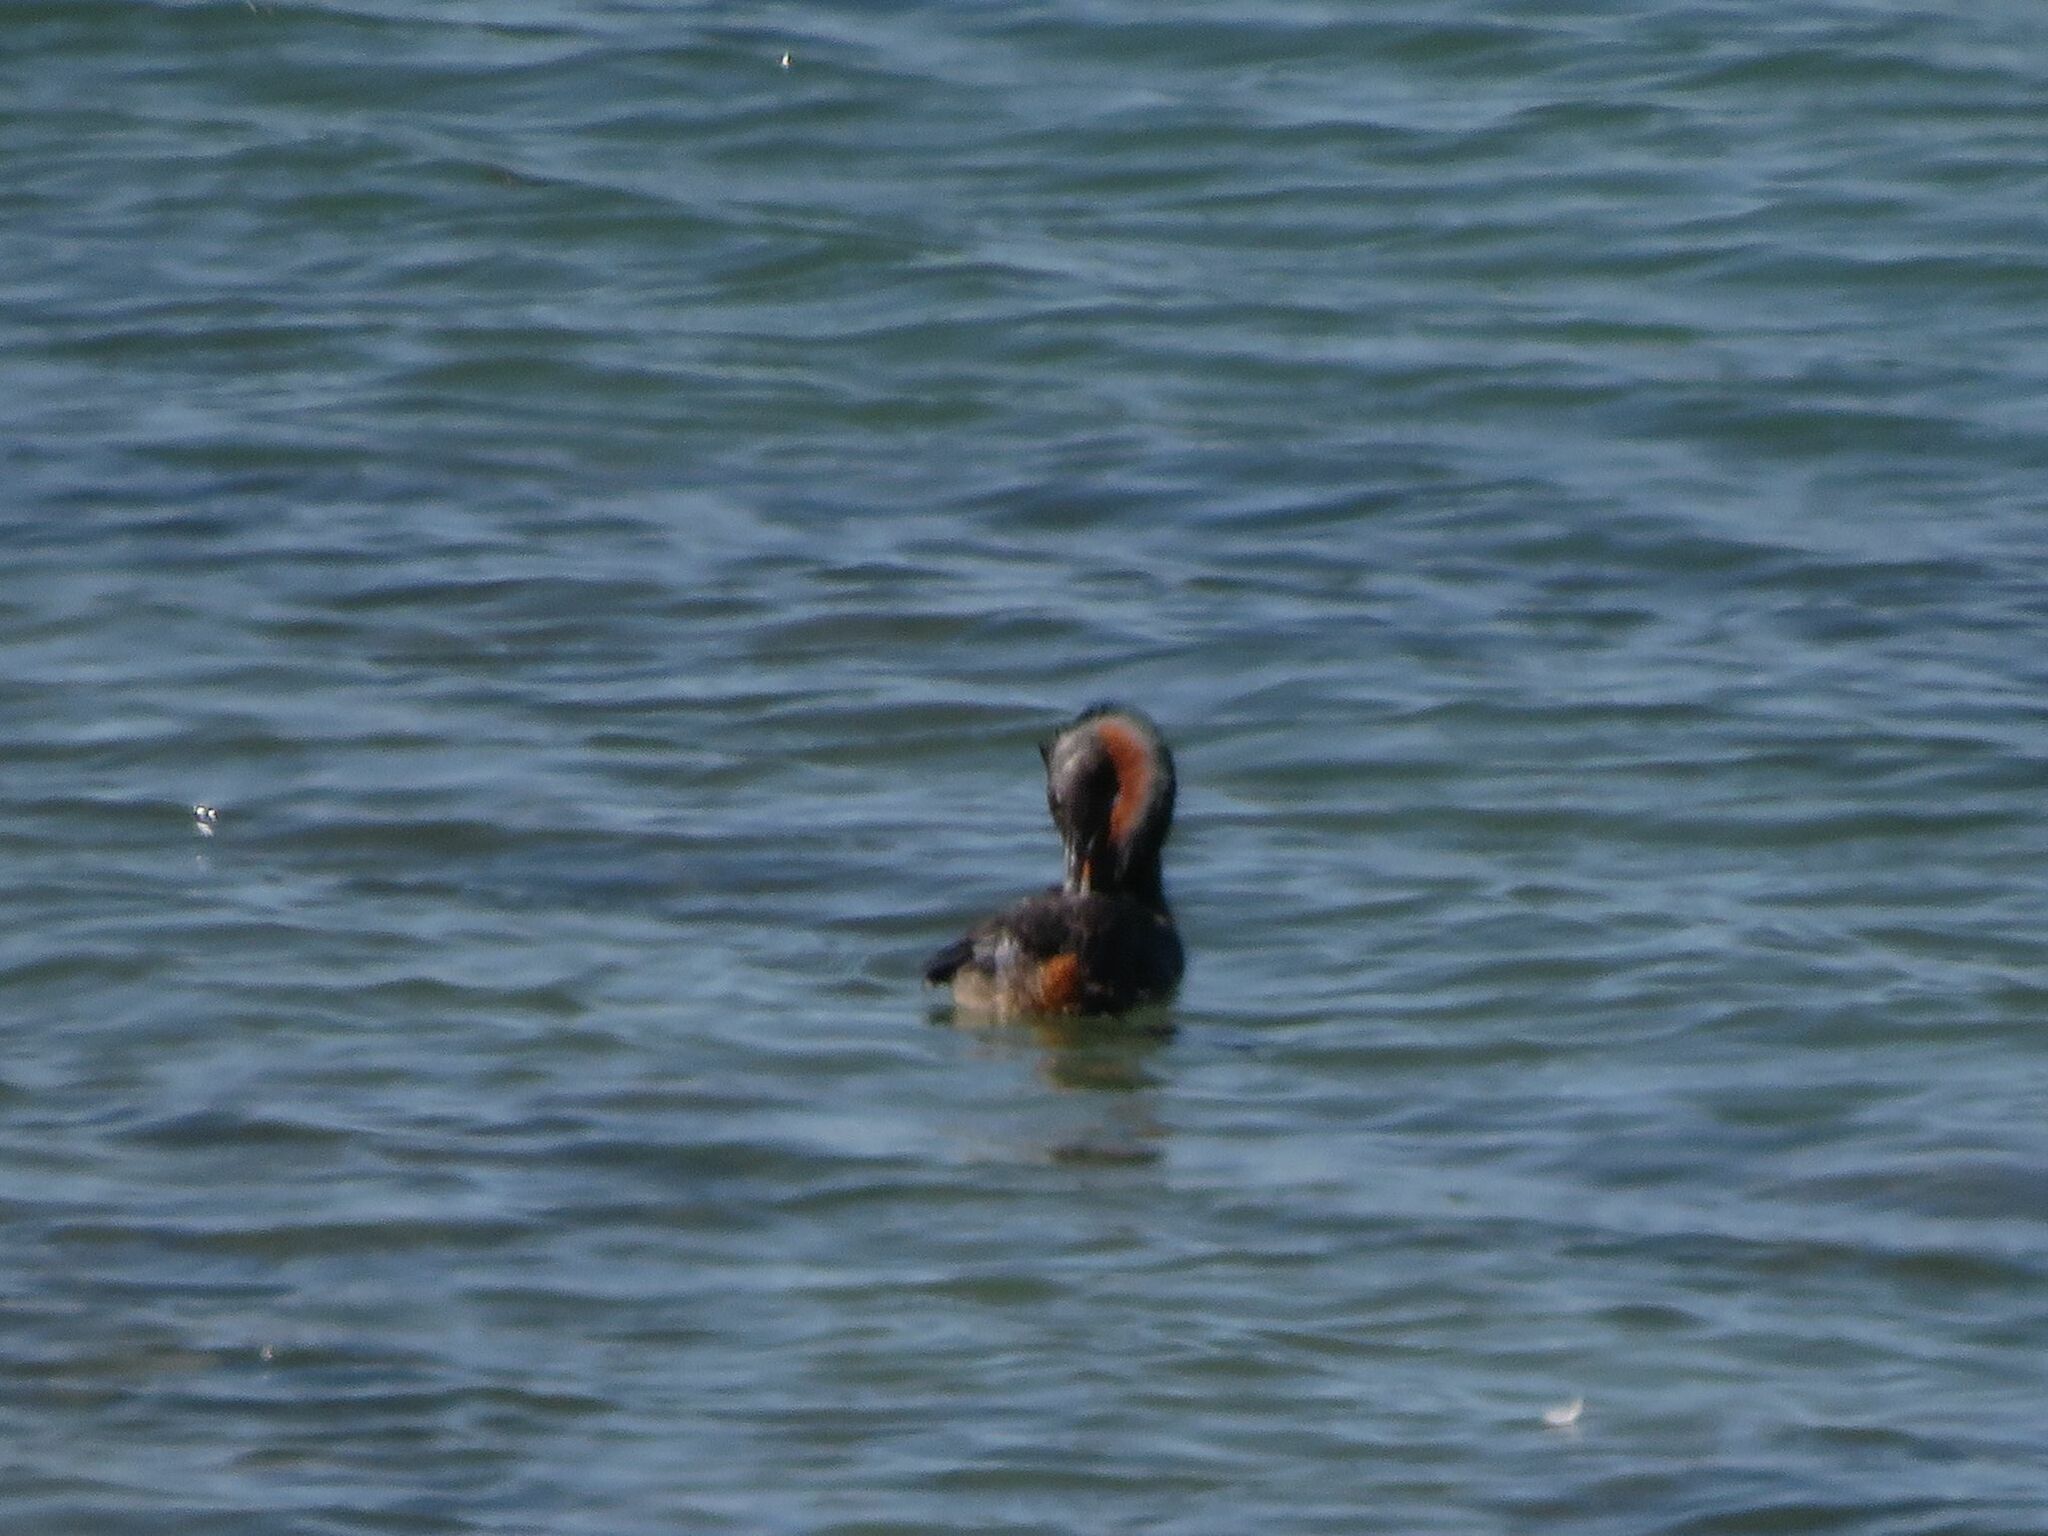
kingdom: Animalia
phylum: Chordata
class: Aves
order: Podicipediformes
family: Podicipedidae
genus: Podiceps
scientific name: Podiceps major
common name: Great grebe
